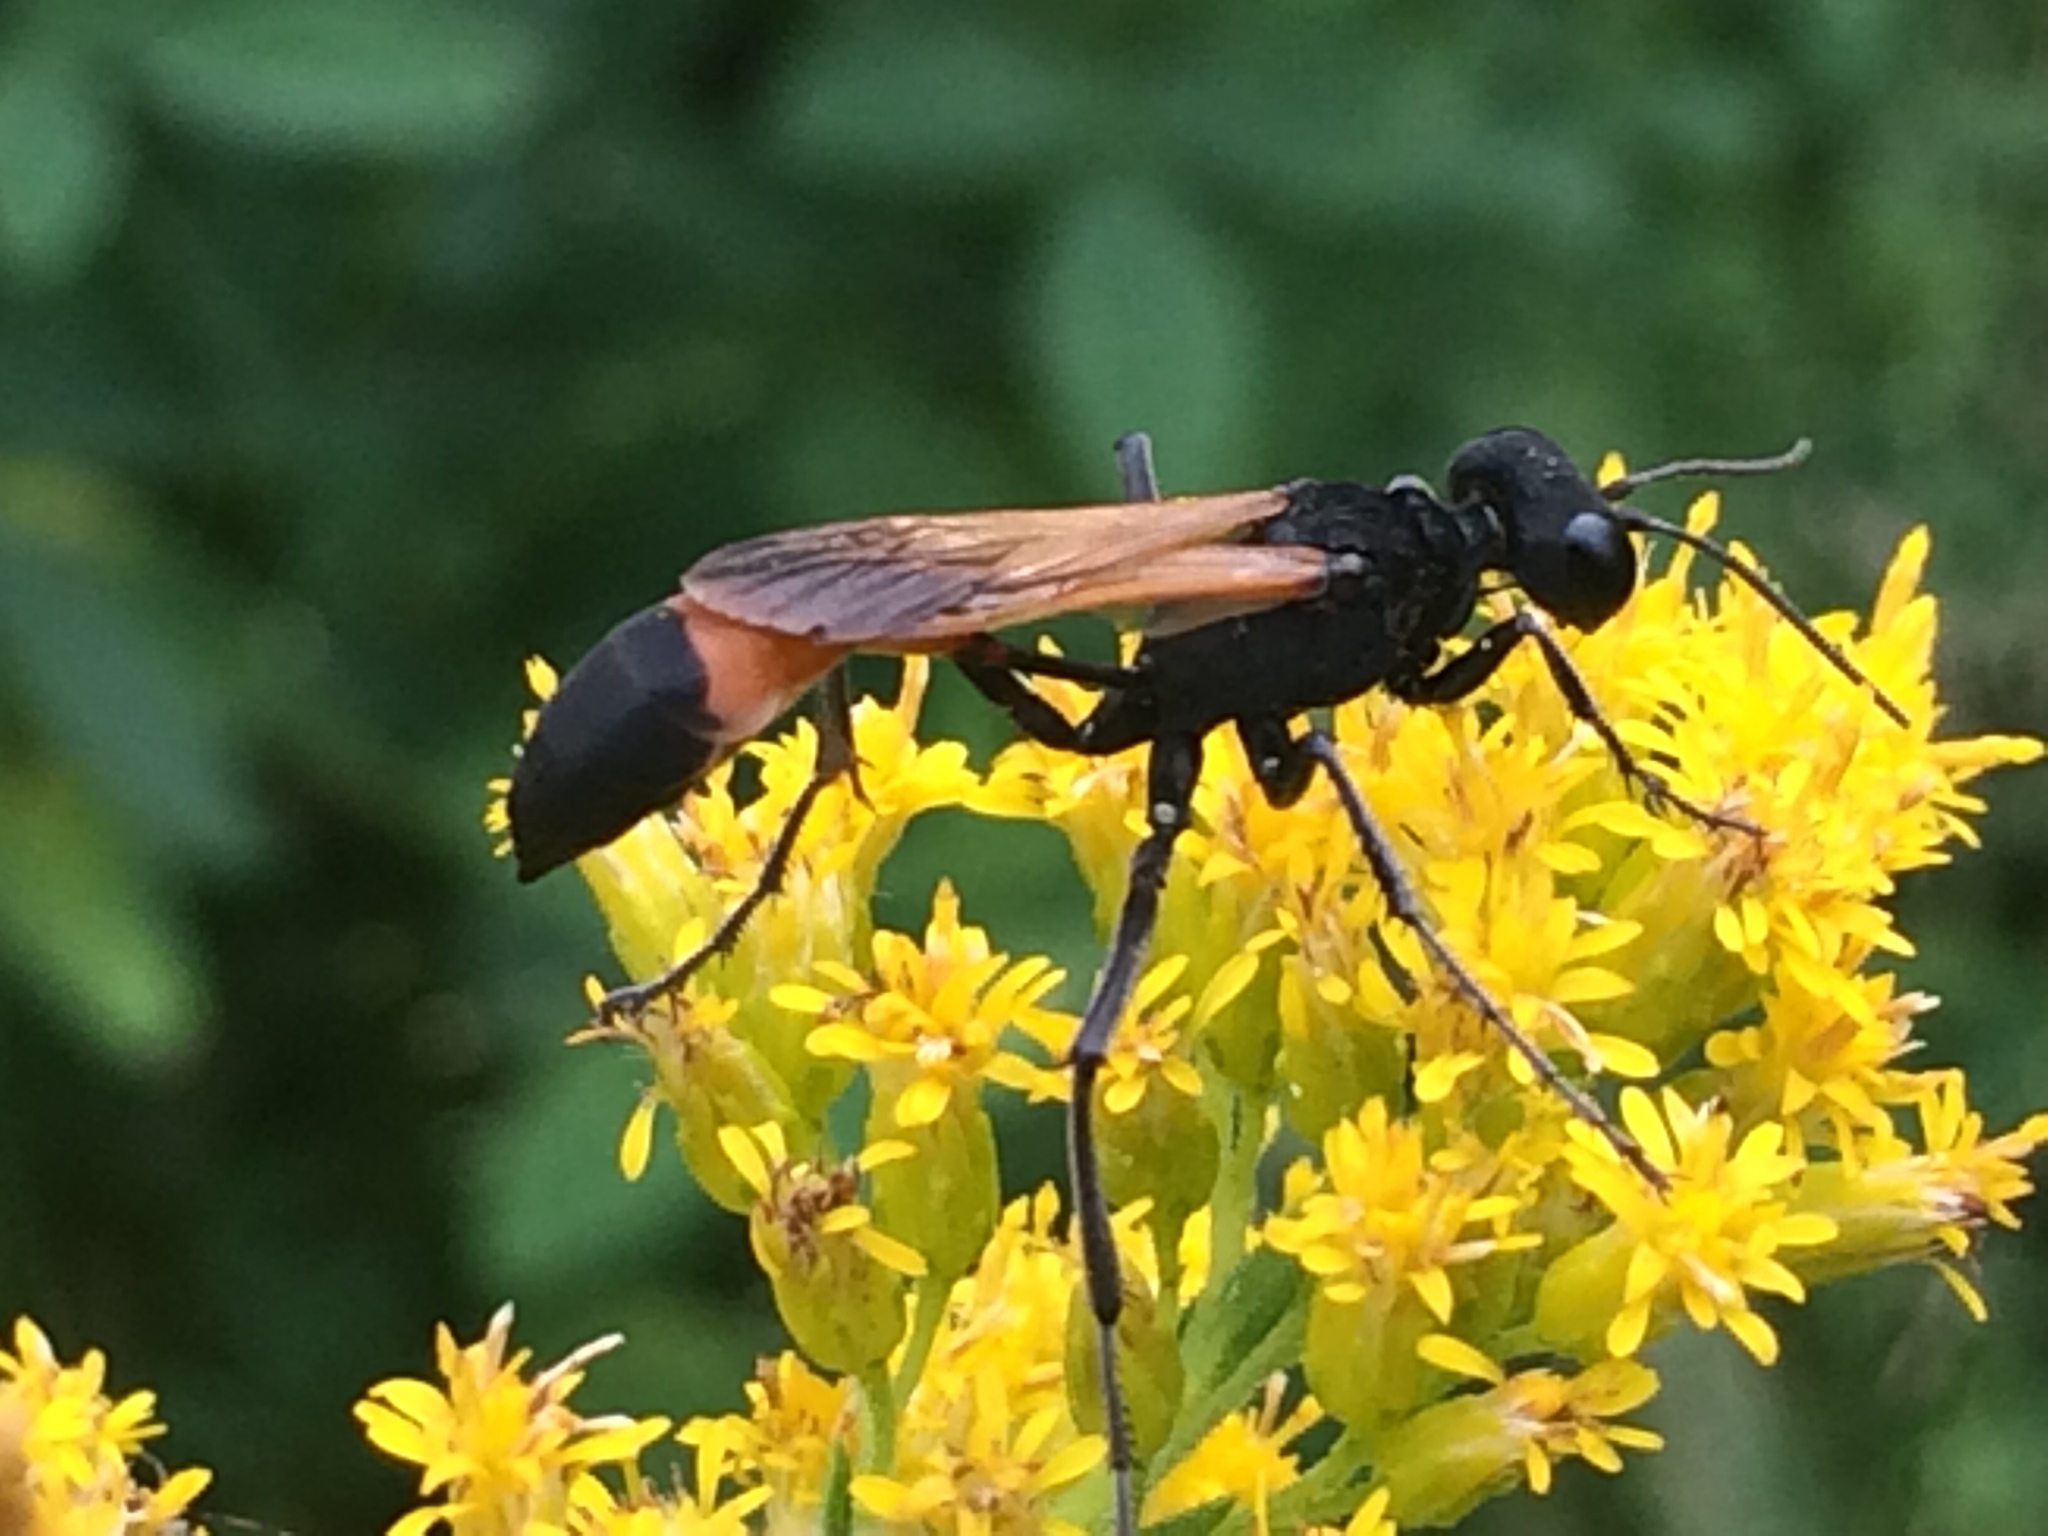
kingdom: Animalia
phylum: Arthropoda
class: Insecta
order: Hymenoptera
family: Sphecidae
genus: Ammophila
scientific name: Ammophila pictipennis
